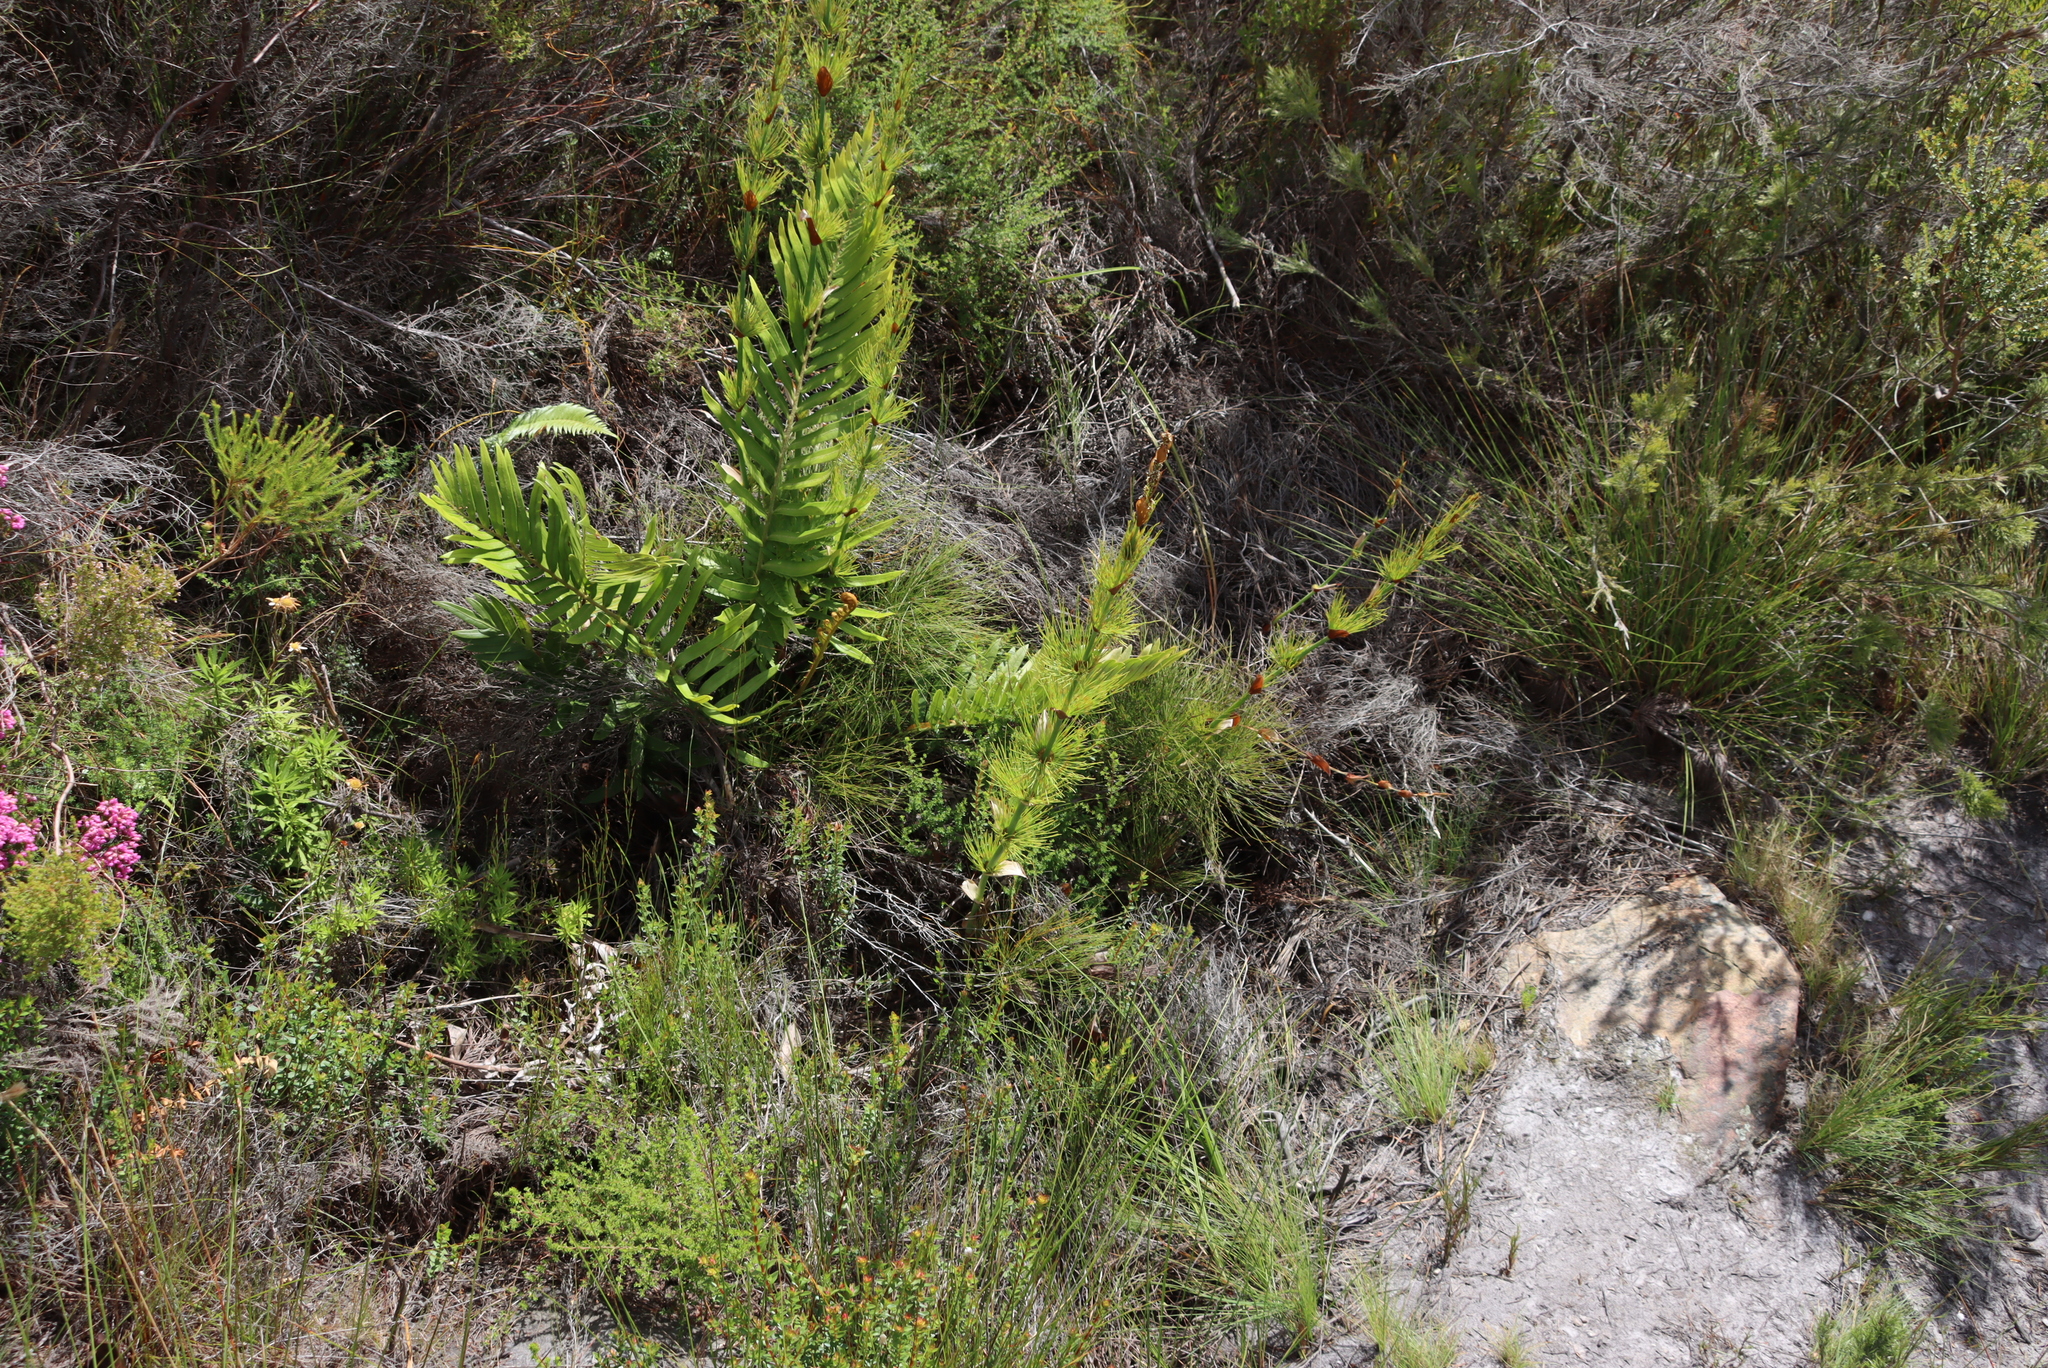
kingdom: Plantae
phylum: Tracheophyta
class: Polypodiopsida
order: Polypodiales
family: Blechnaceae
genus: Lomariocycas
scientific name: Lomariocycas tabularis
